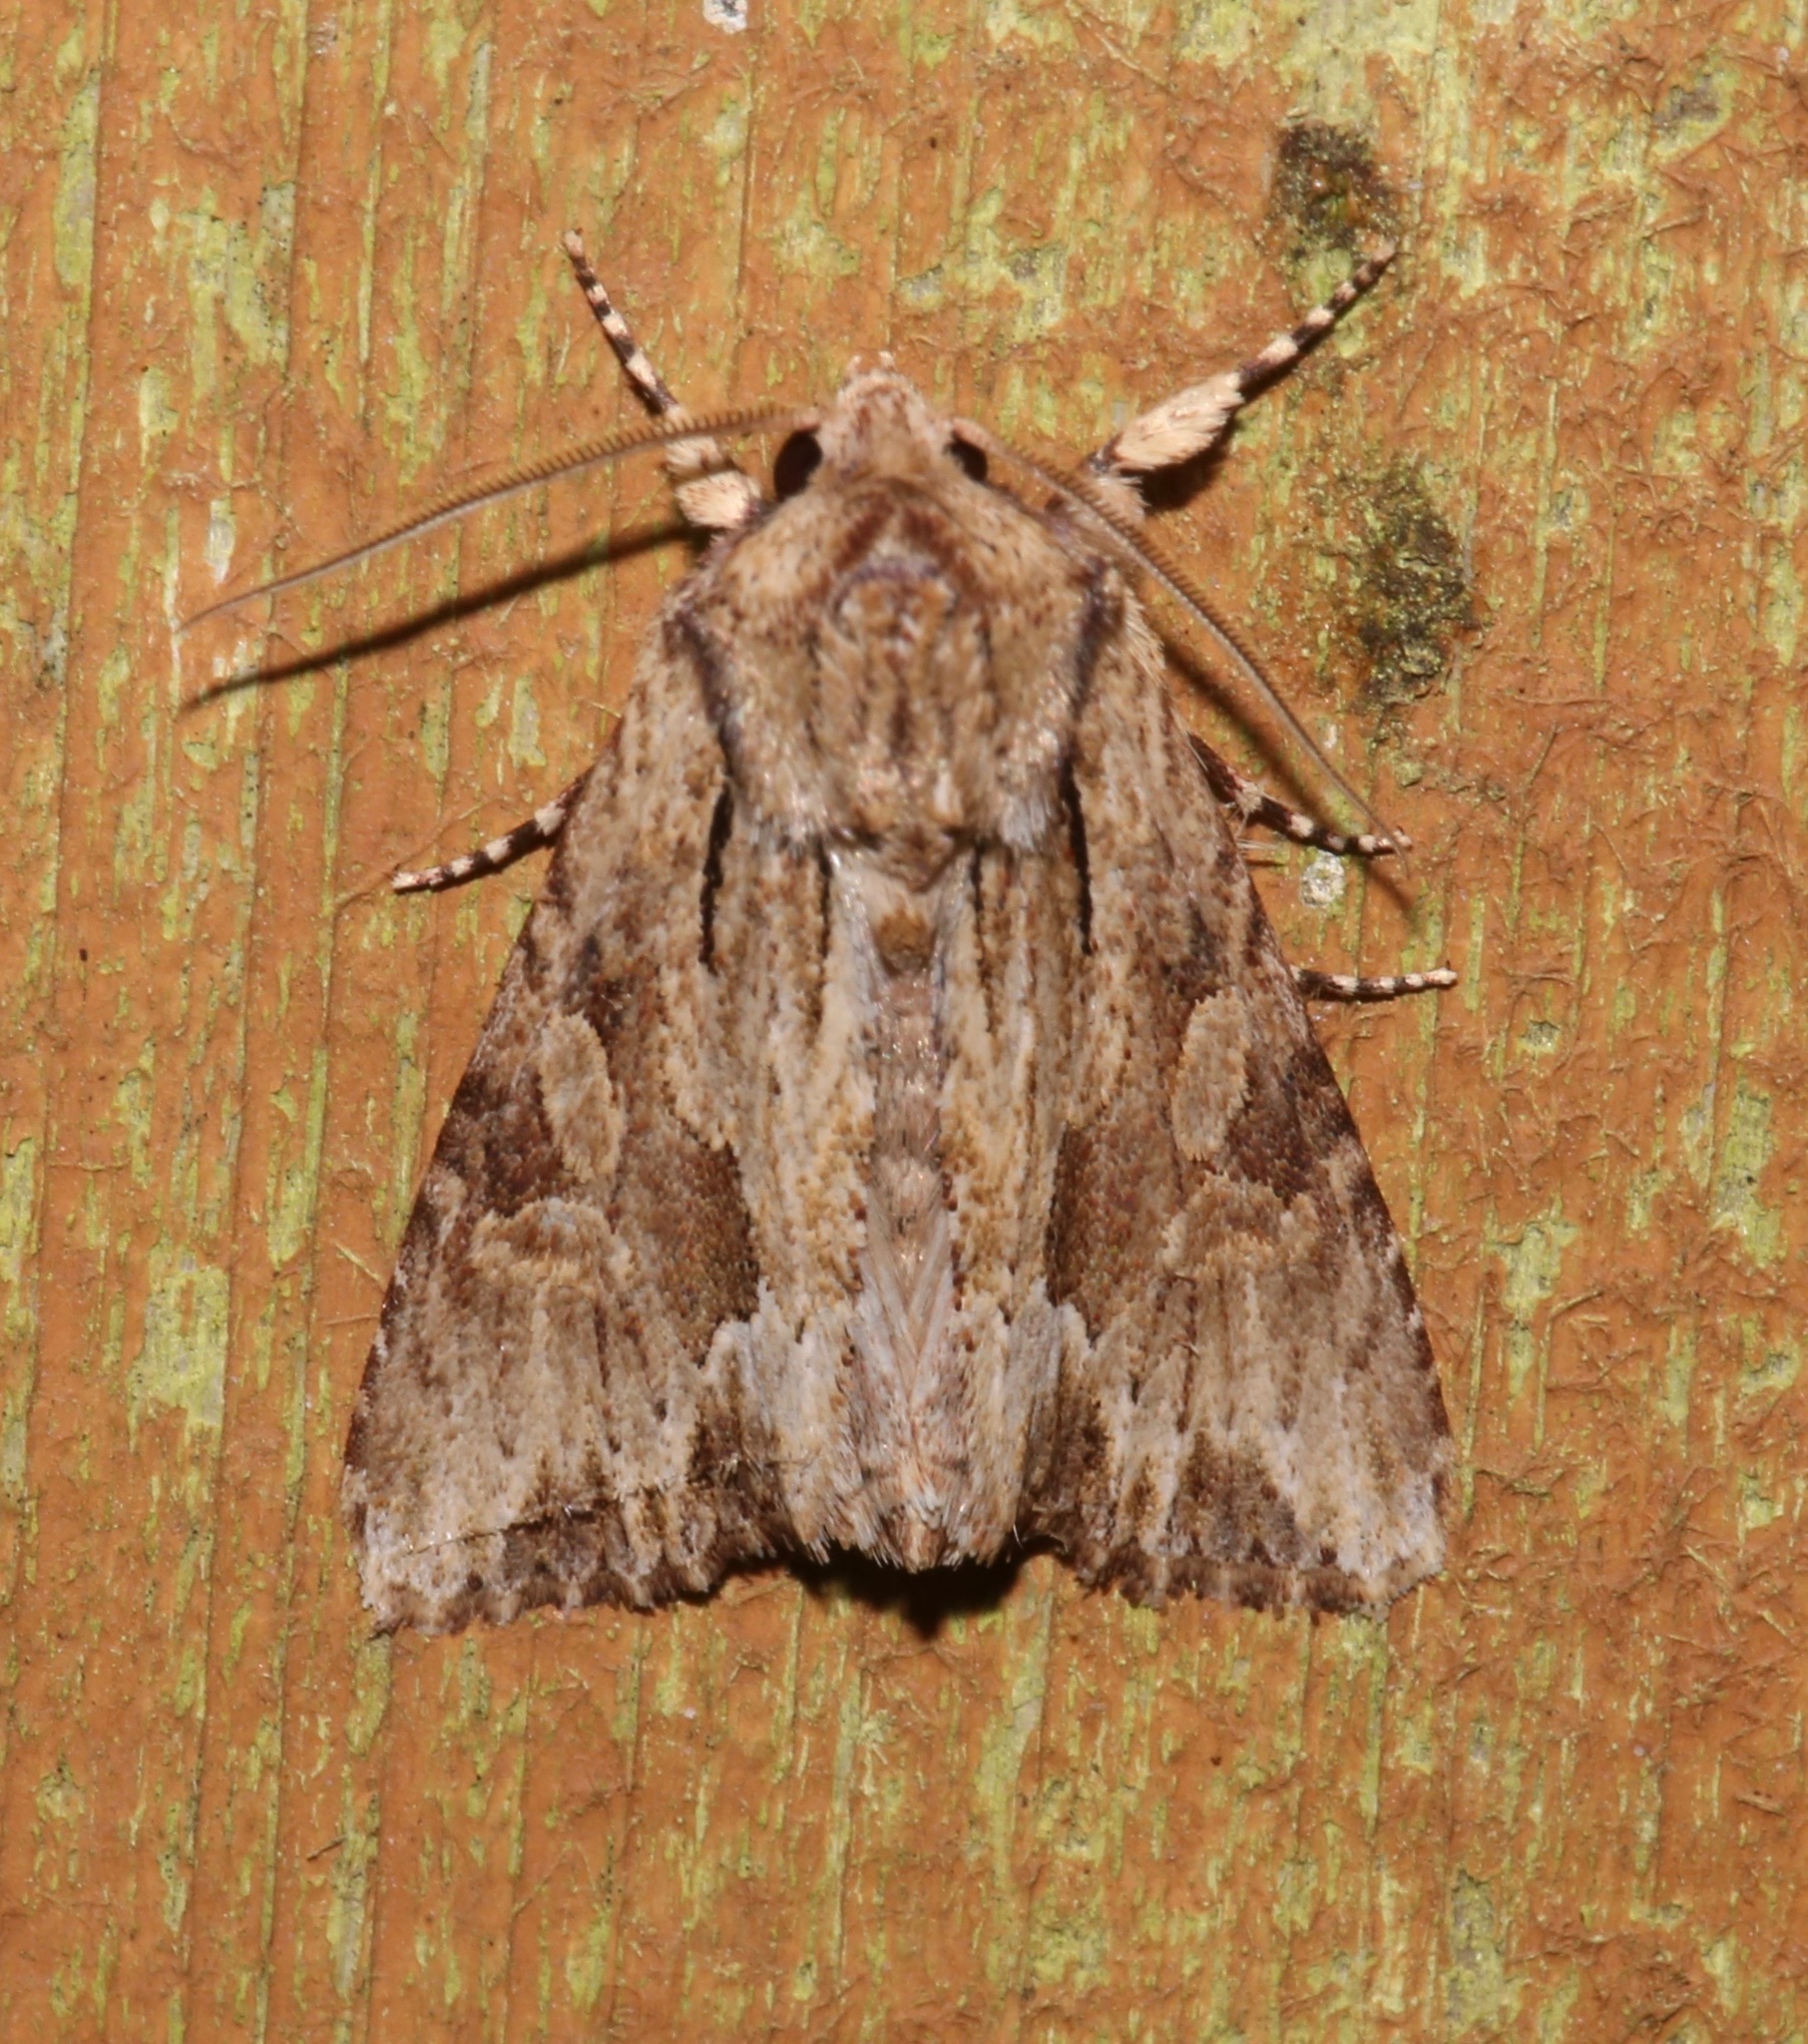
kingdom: Animalia
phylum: Arthropoda
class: Insecta
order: Lepidoptera
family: Noctuidae
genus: Achatia
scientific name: Achatia mucens
